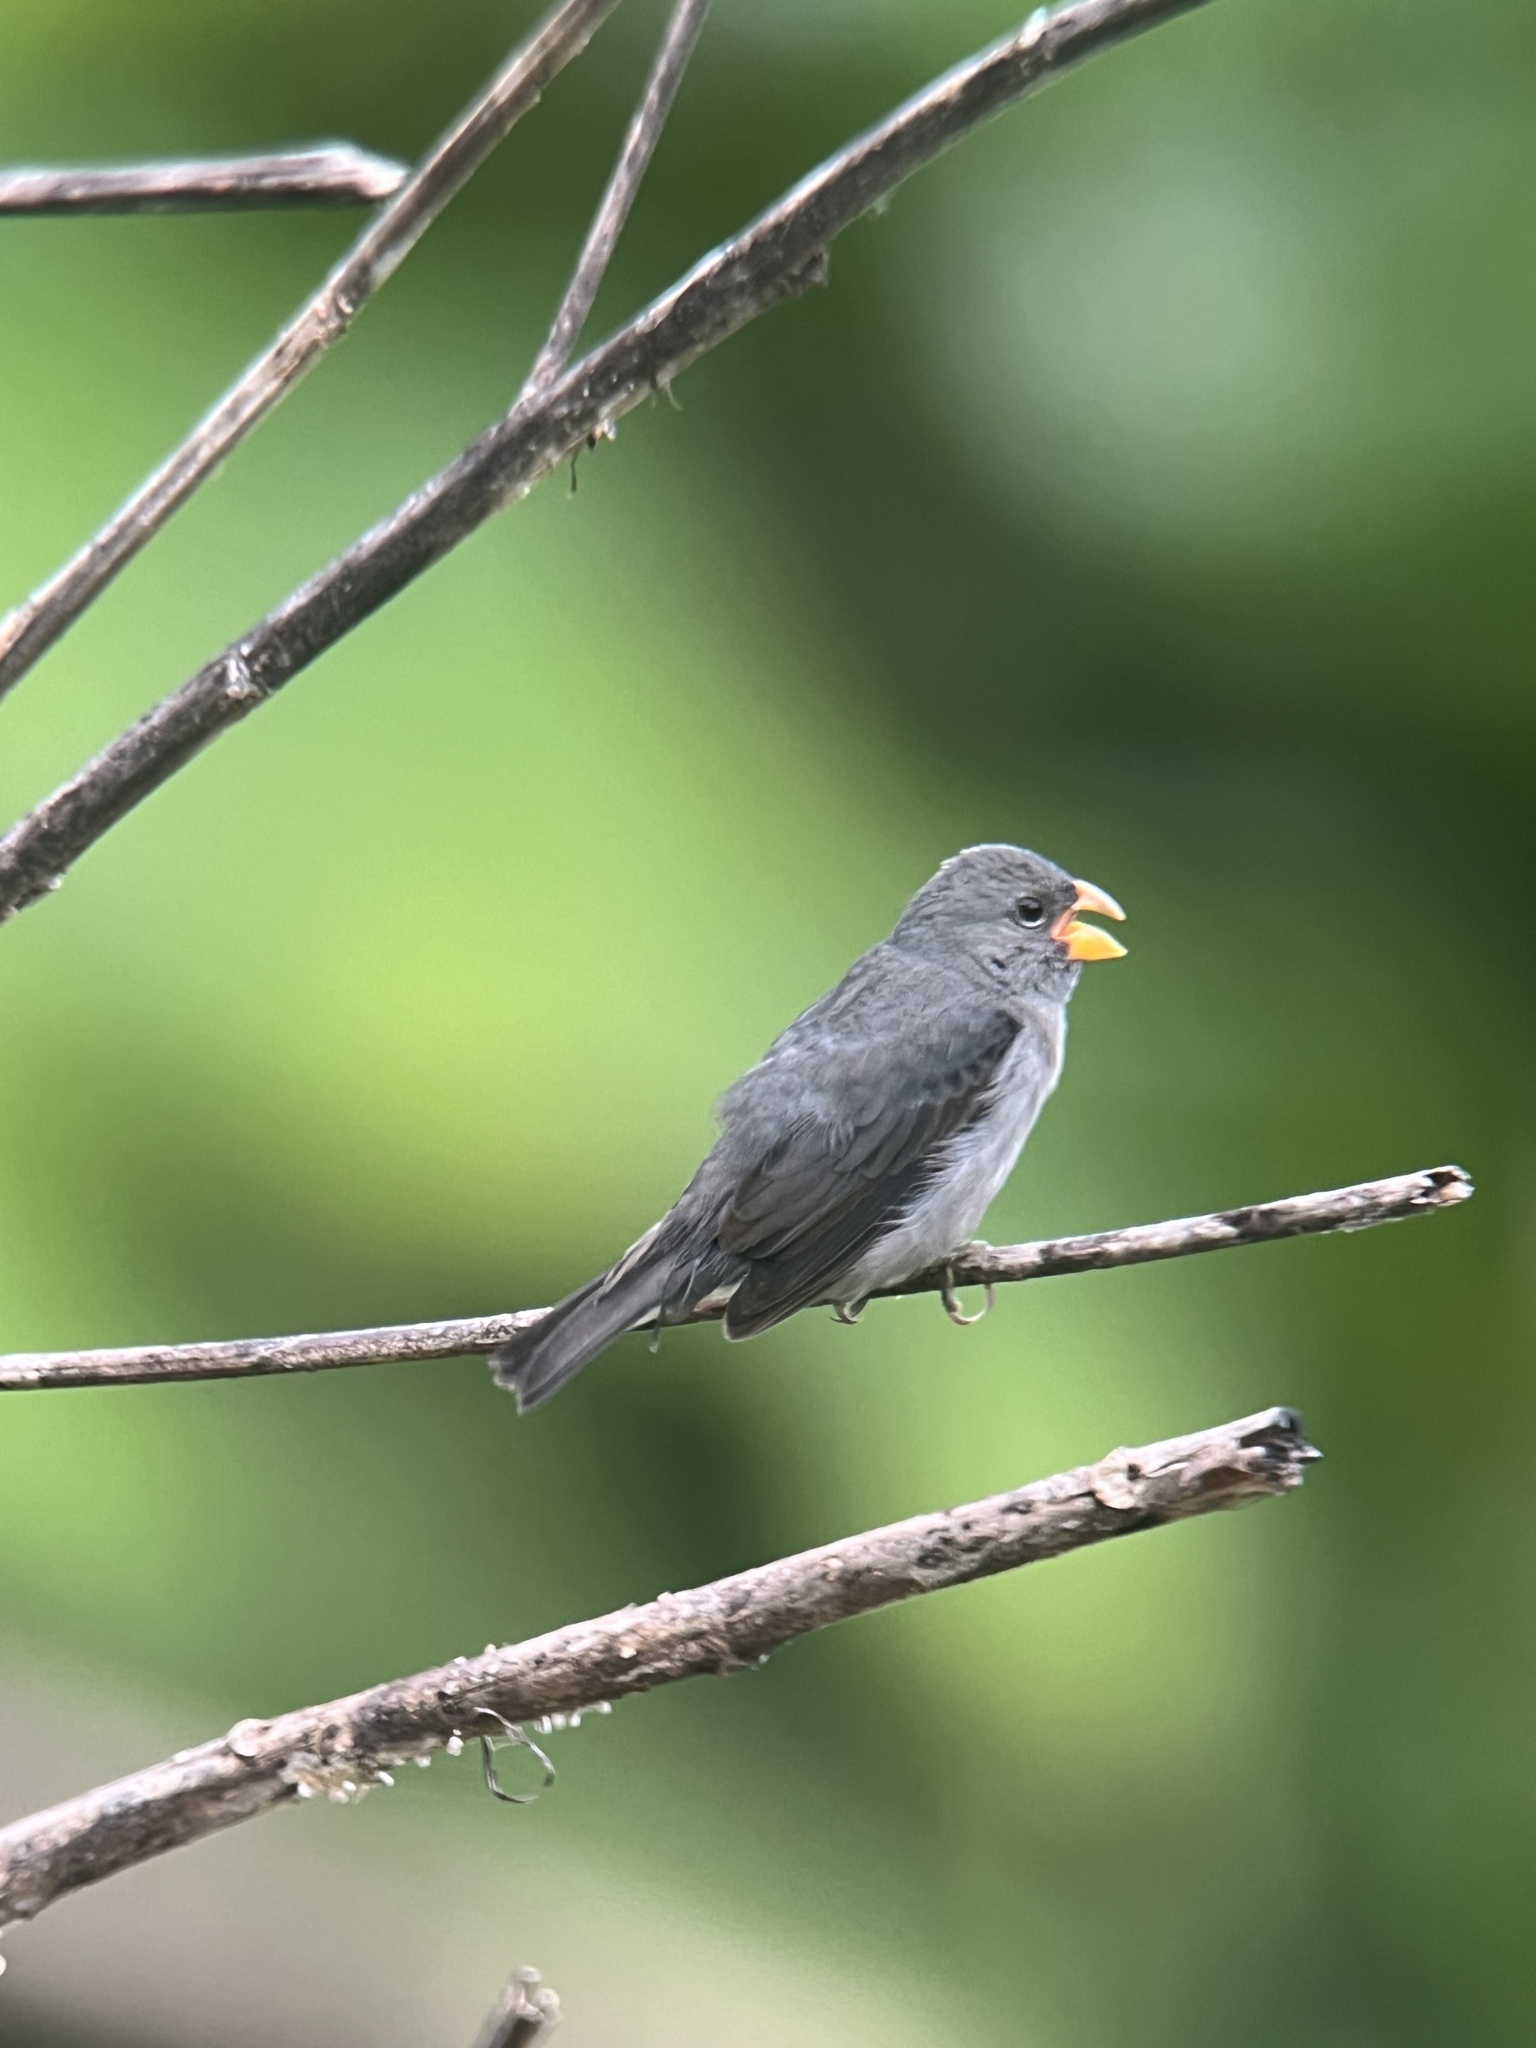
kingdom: Animalia
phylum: Chordata
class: Aves
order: Passeriformes
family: Thraupidae
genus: Sporophila
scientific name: Sporophila schistacea
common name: Slate-colored seedeater
